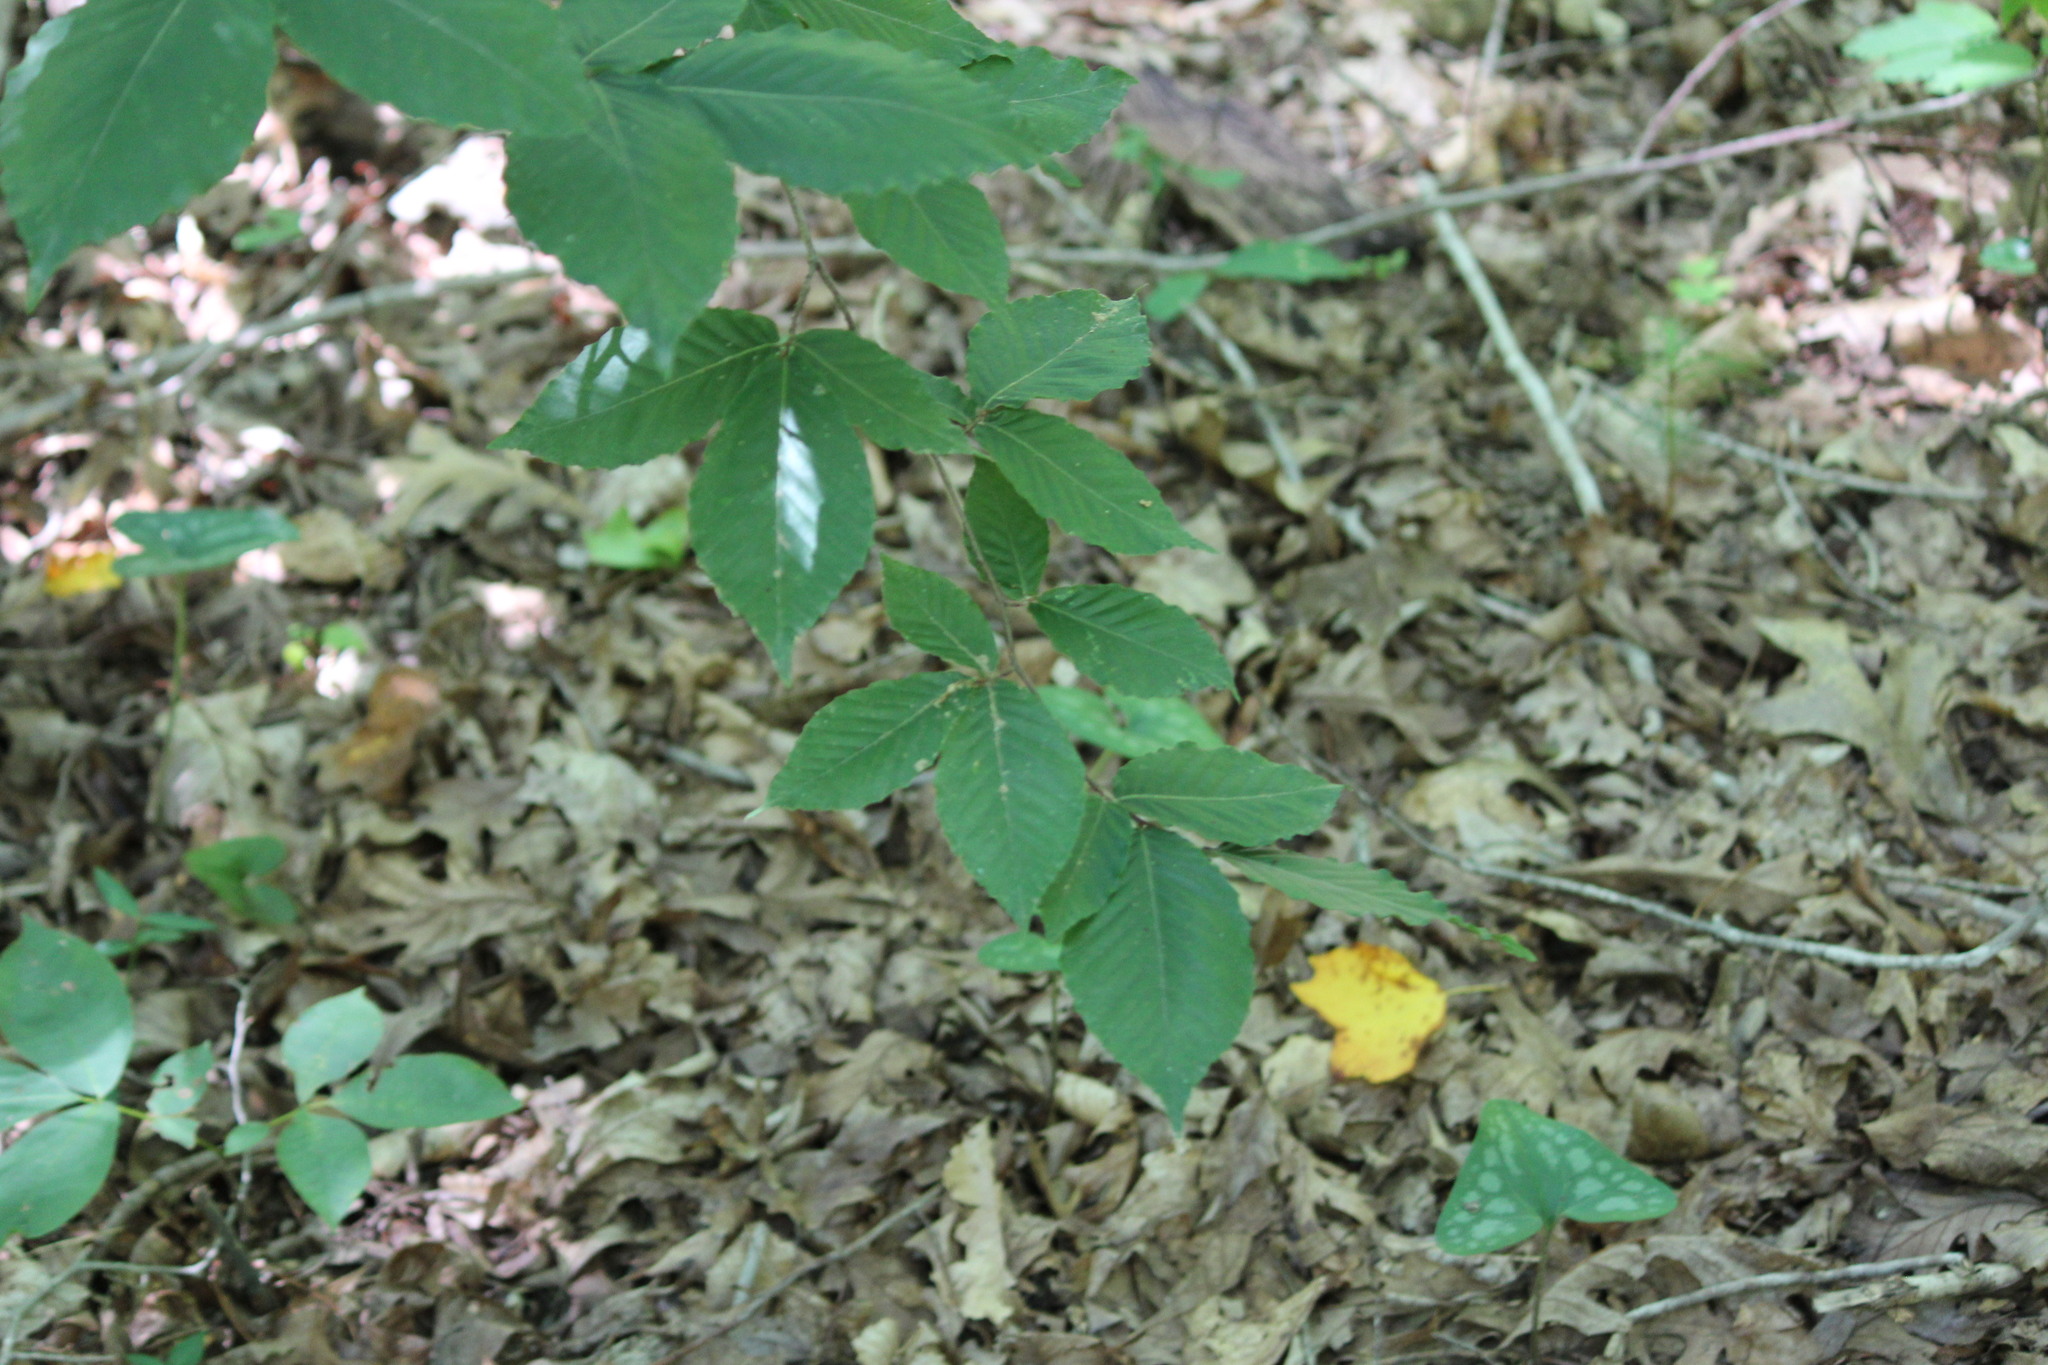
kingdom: Plantae
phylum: Tracheophyta
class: Magnoliopsida
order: Fagales
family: Fagaceae
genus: Fagus
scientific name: Fagus grandifolia
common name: American beech
